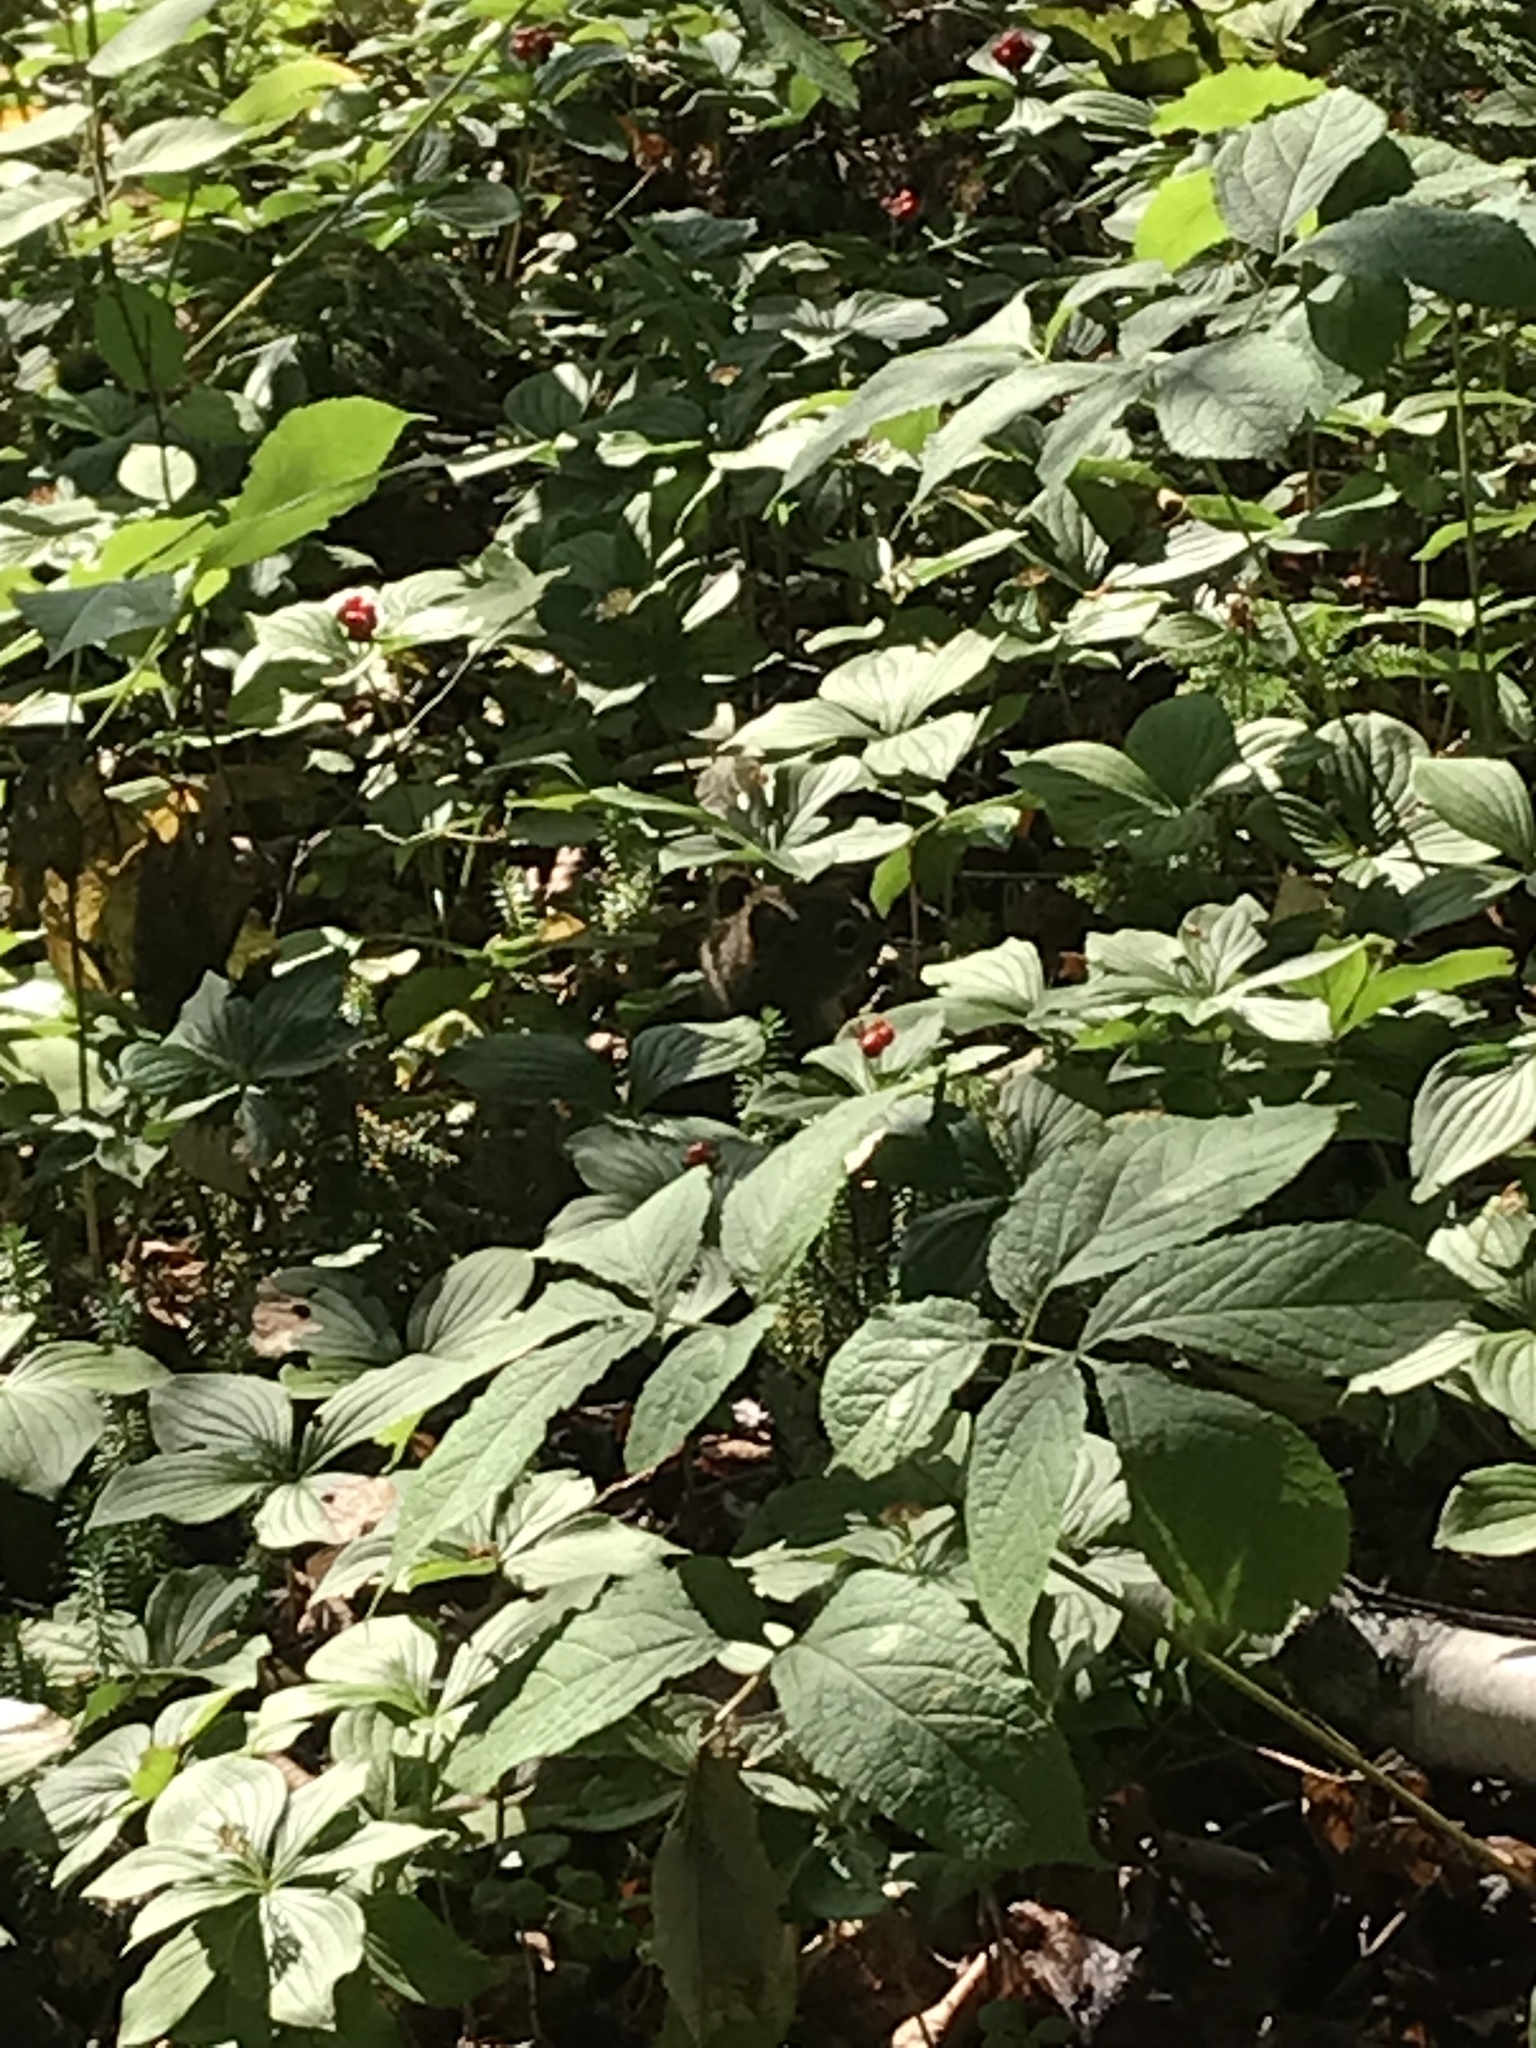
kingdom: Animalia
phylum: Chordata
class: Mammalia
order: Rodentia
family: Sciuridae
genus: Tamiasciurus
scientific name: Tamiasciurus hudsonicus
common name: Red squirrel
